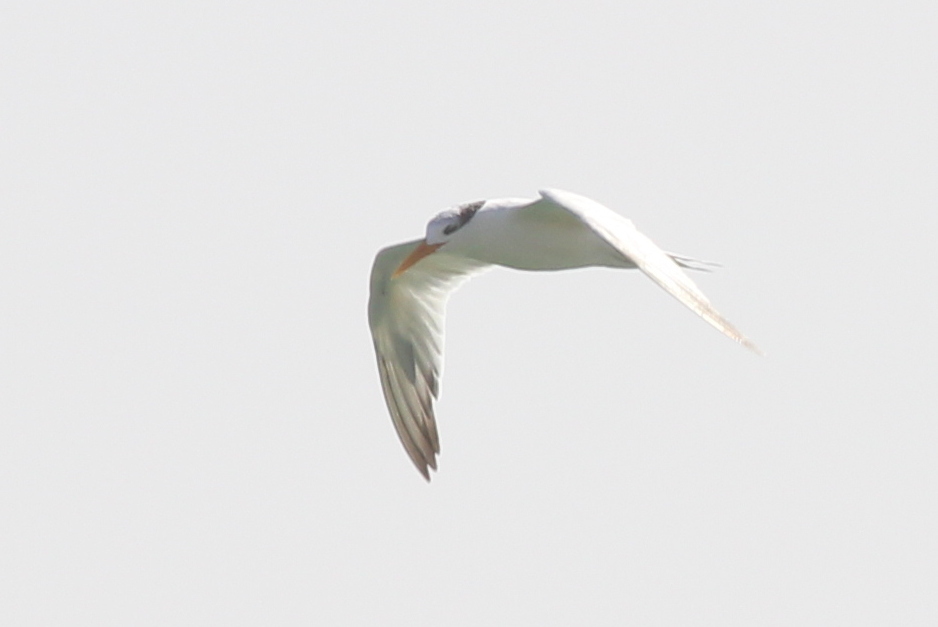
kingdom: Animalia
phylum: Chordata
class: Aves
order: Charadriiformes
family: Laridae
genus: Thalasseus
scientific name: Thalasseus albididorsalis
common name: West african crested tern
